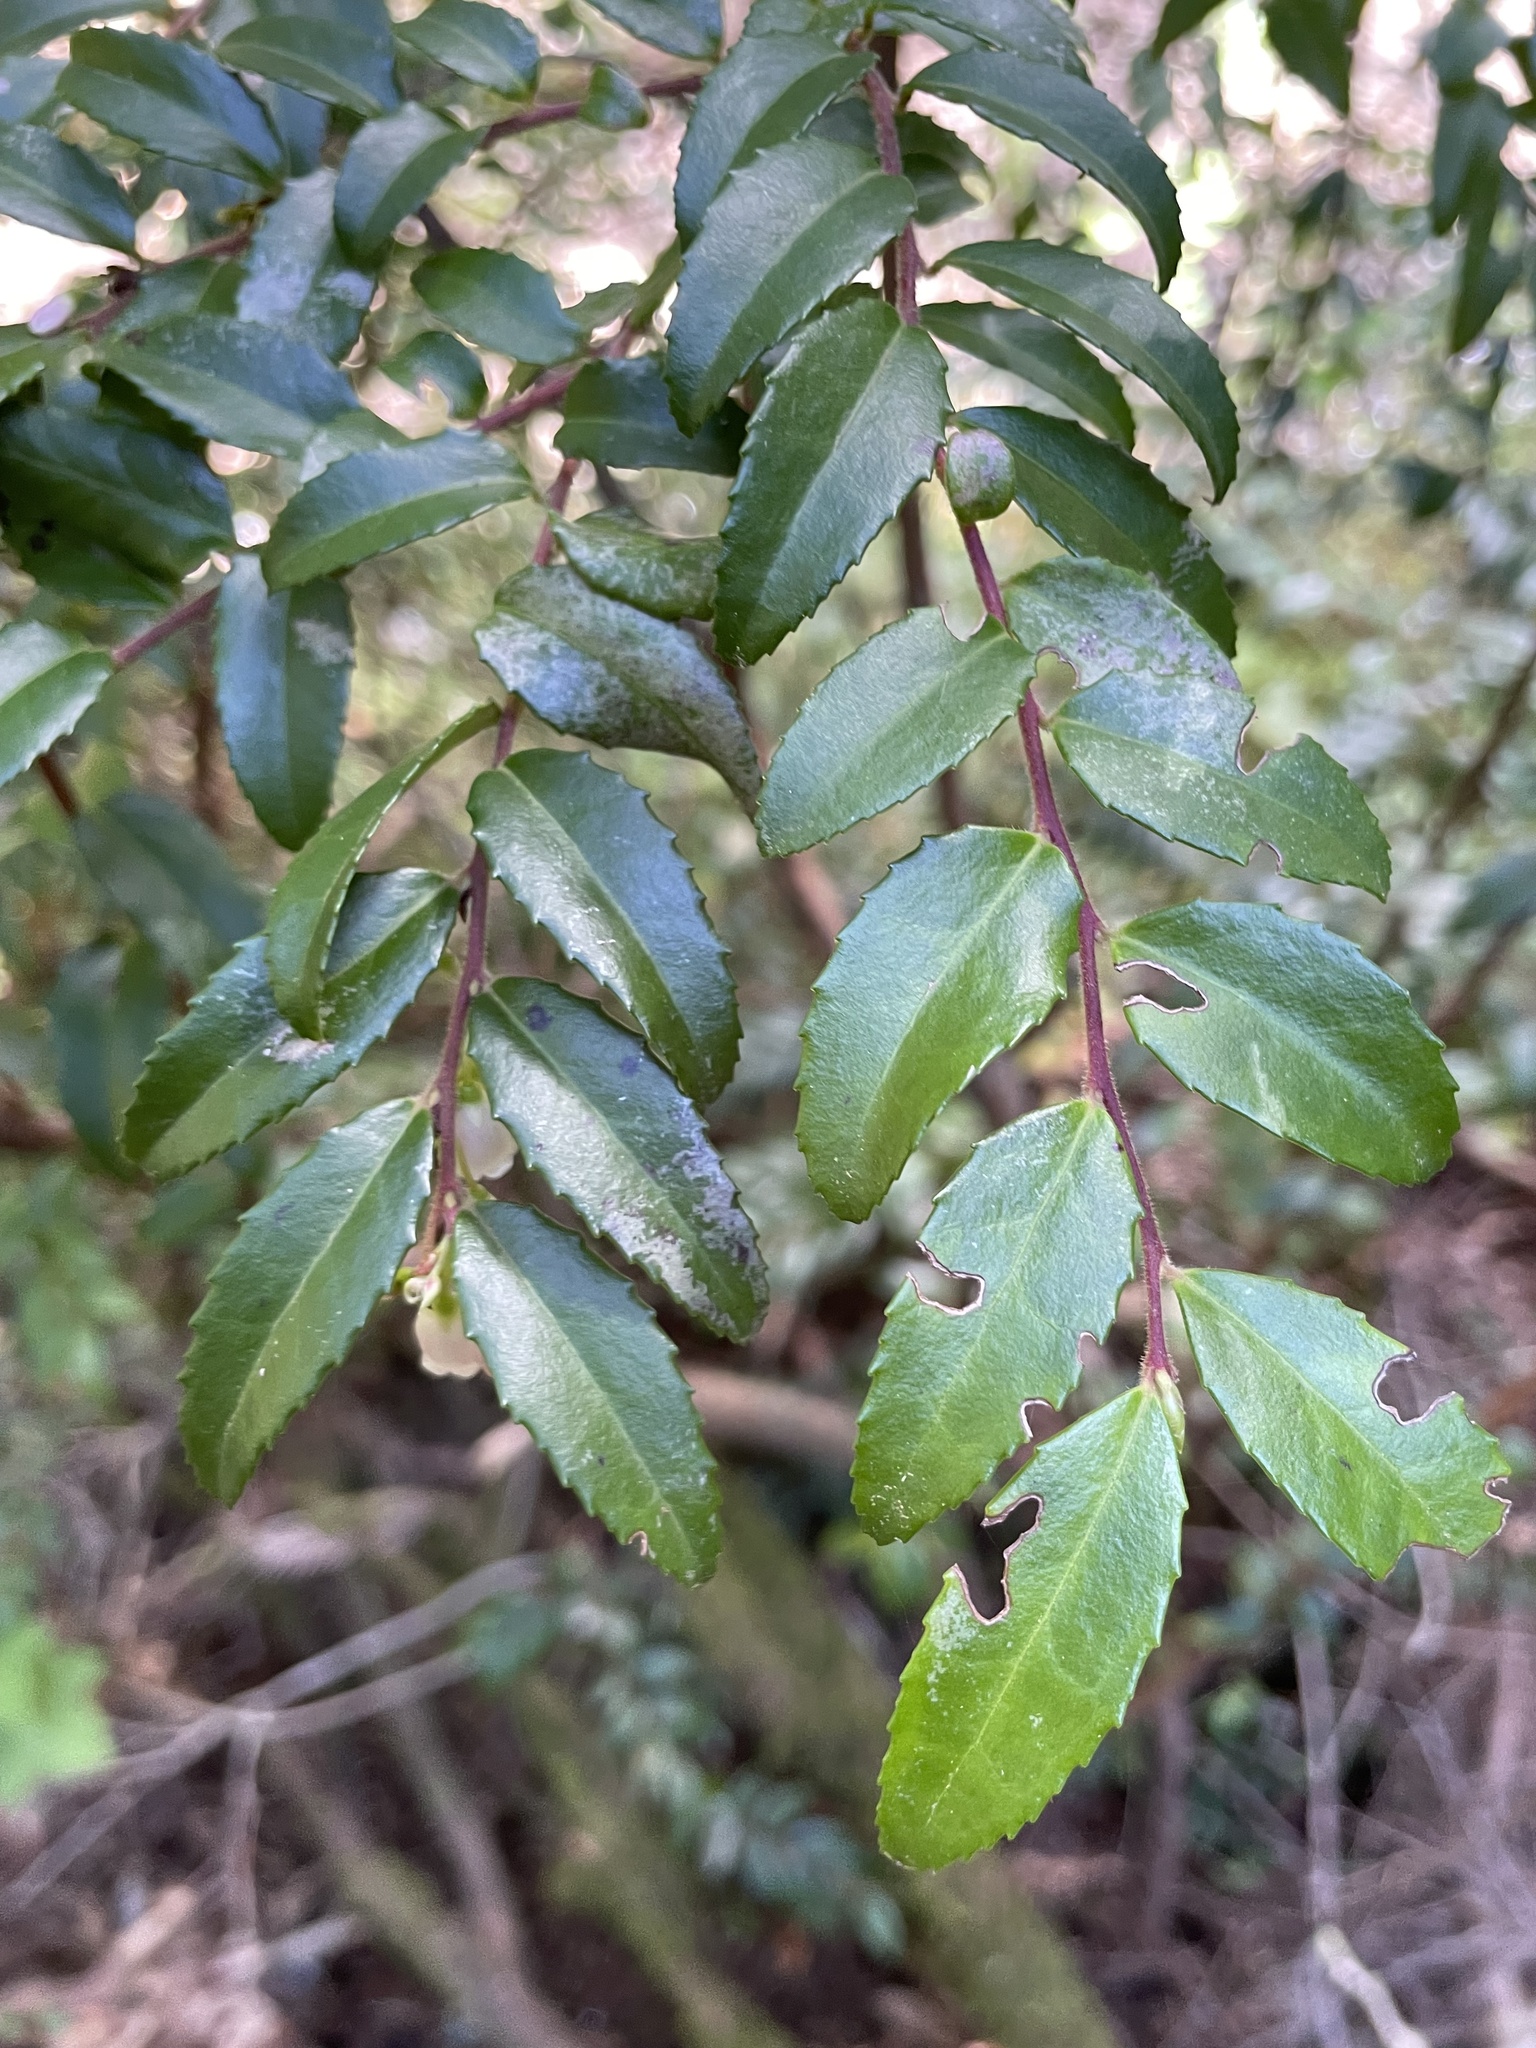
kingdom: Plantae
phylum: Tracheophyta
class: Magnoliopsida
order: Ericales
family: Ericaceae
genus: Vaccinium
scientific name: Vaccinium ovatum
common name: California-huckleberry
